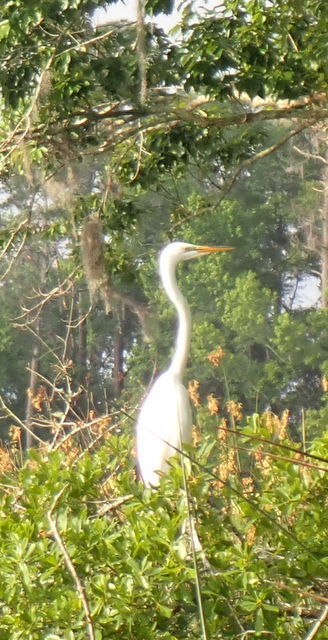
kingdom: Animalia
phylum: Chordata
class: Aves
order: Pelecaniformes
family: Ardeidae
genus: Ardea
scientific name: Ardea alba
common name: Great egret
